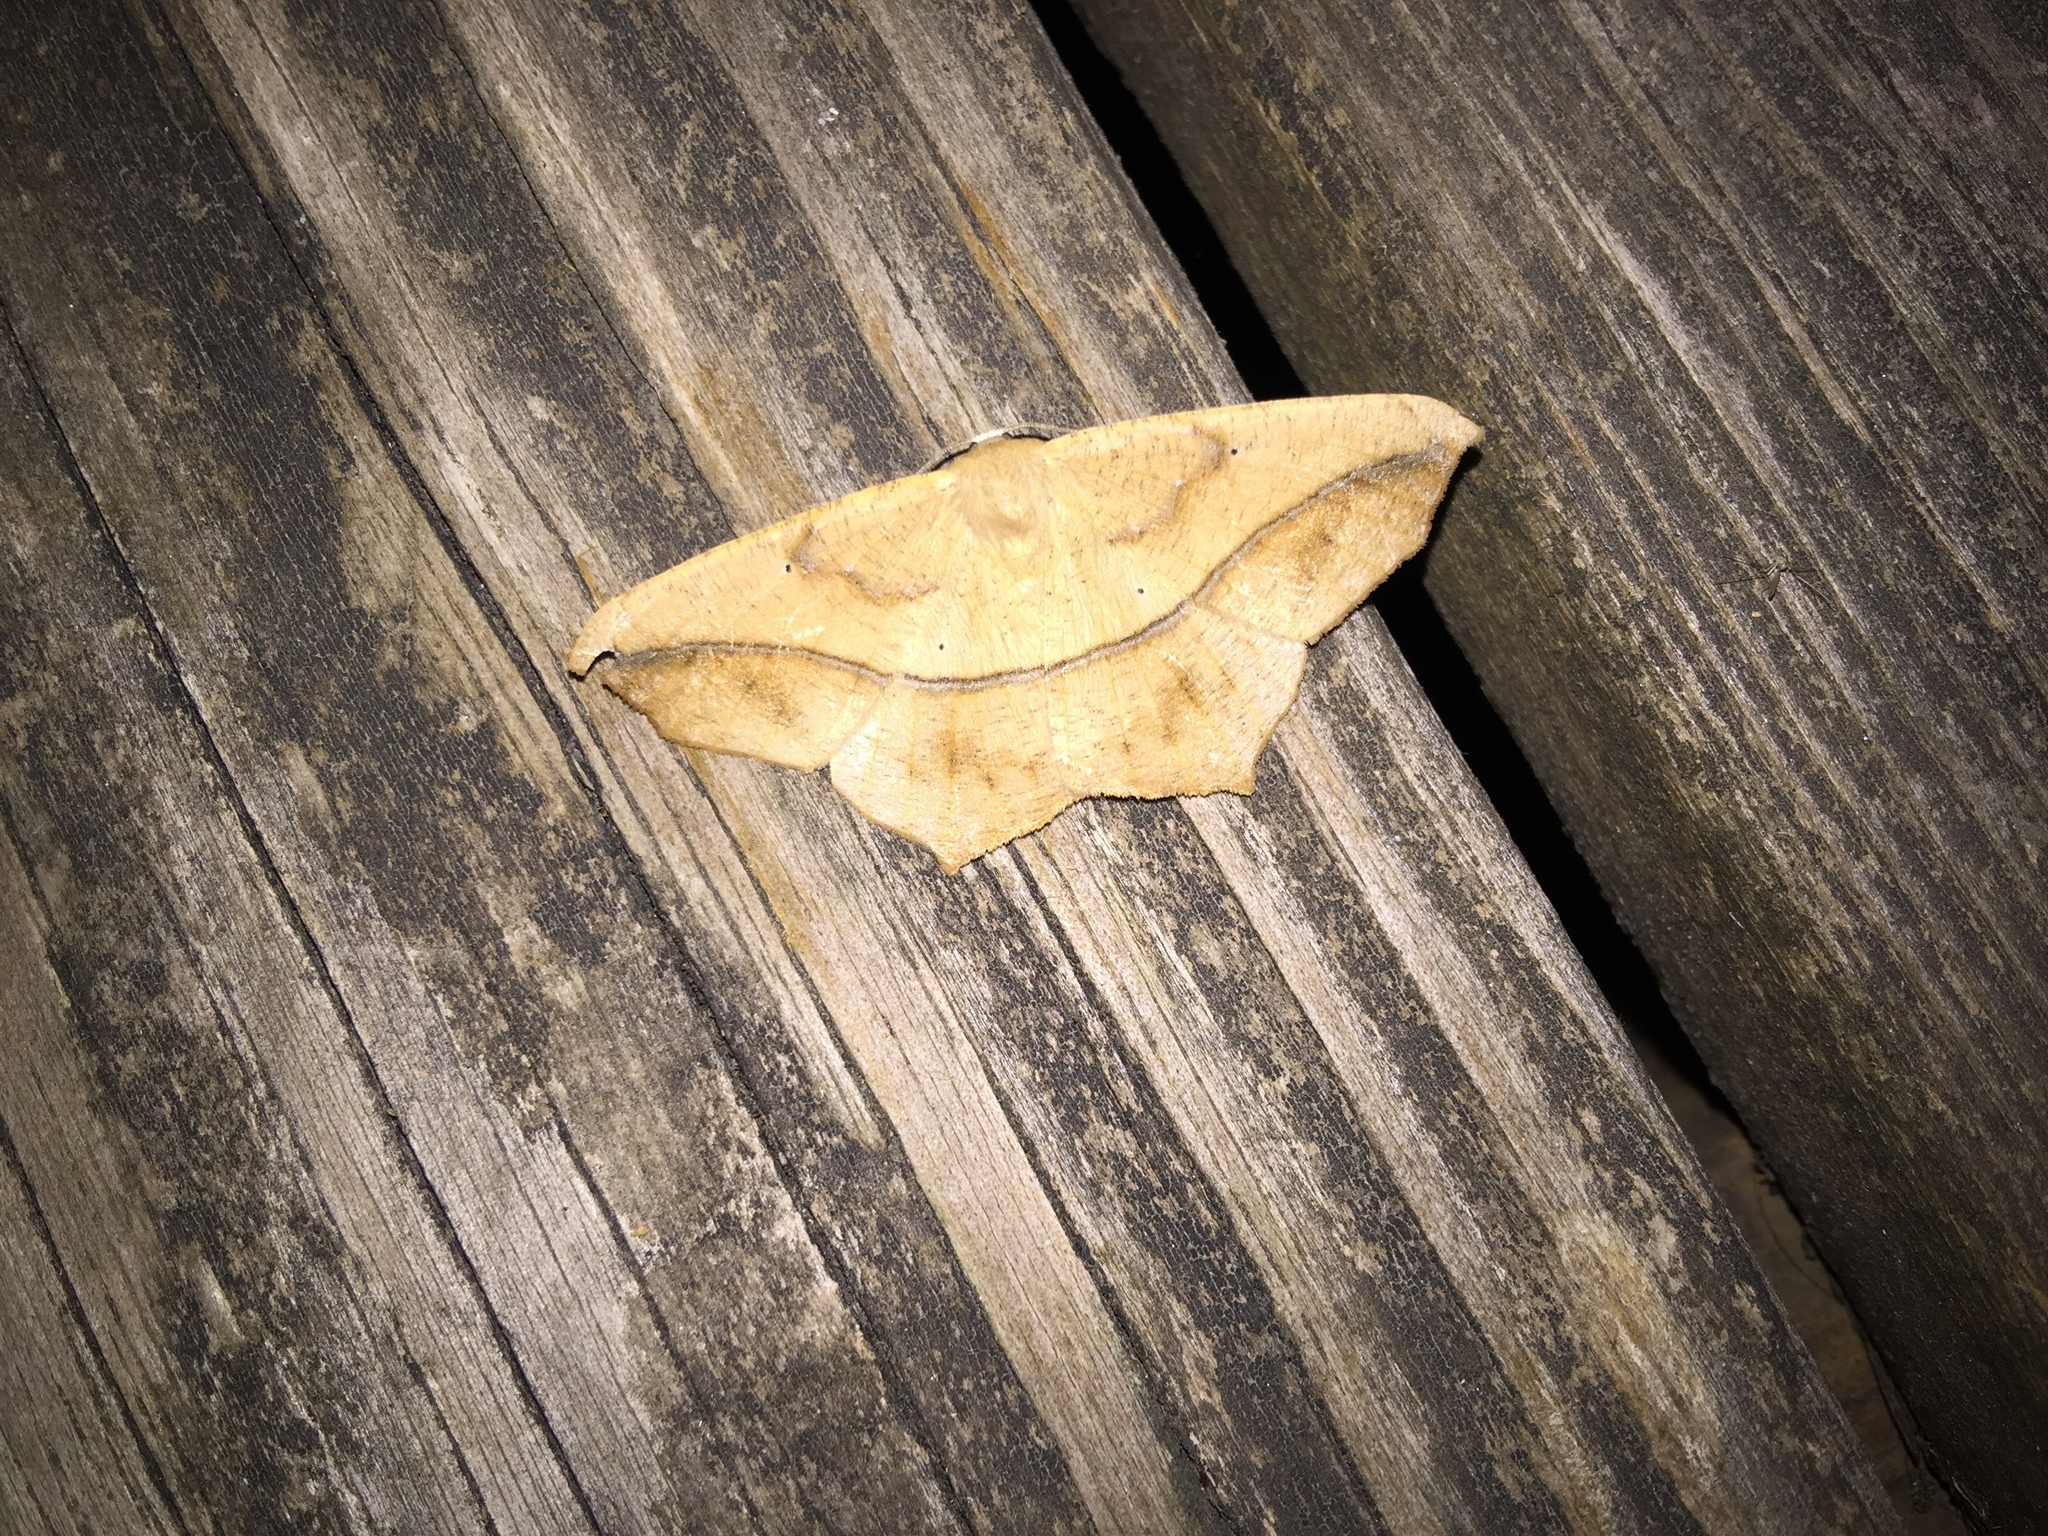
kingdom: Animalia
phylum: Arthropoda
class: Insecta
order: Lepidoptera
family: Geometridae
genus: Prochoerodes
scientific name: Prochoerodes lineola
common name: Large maple spanworm
